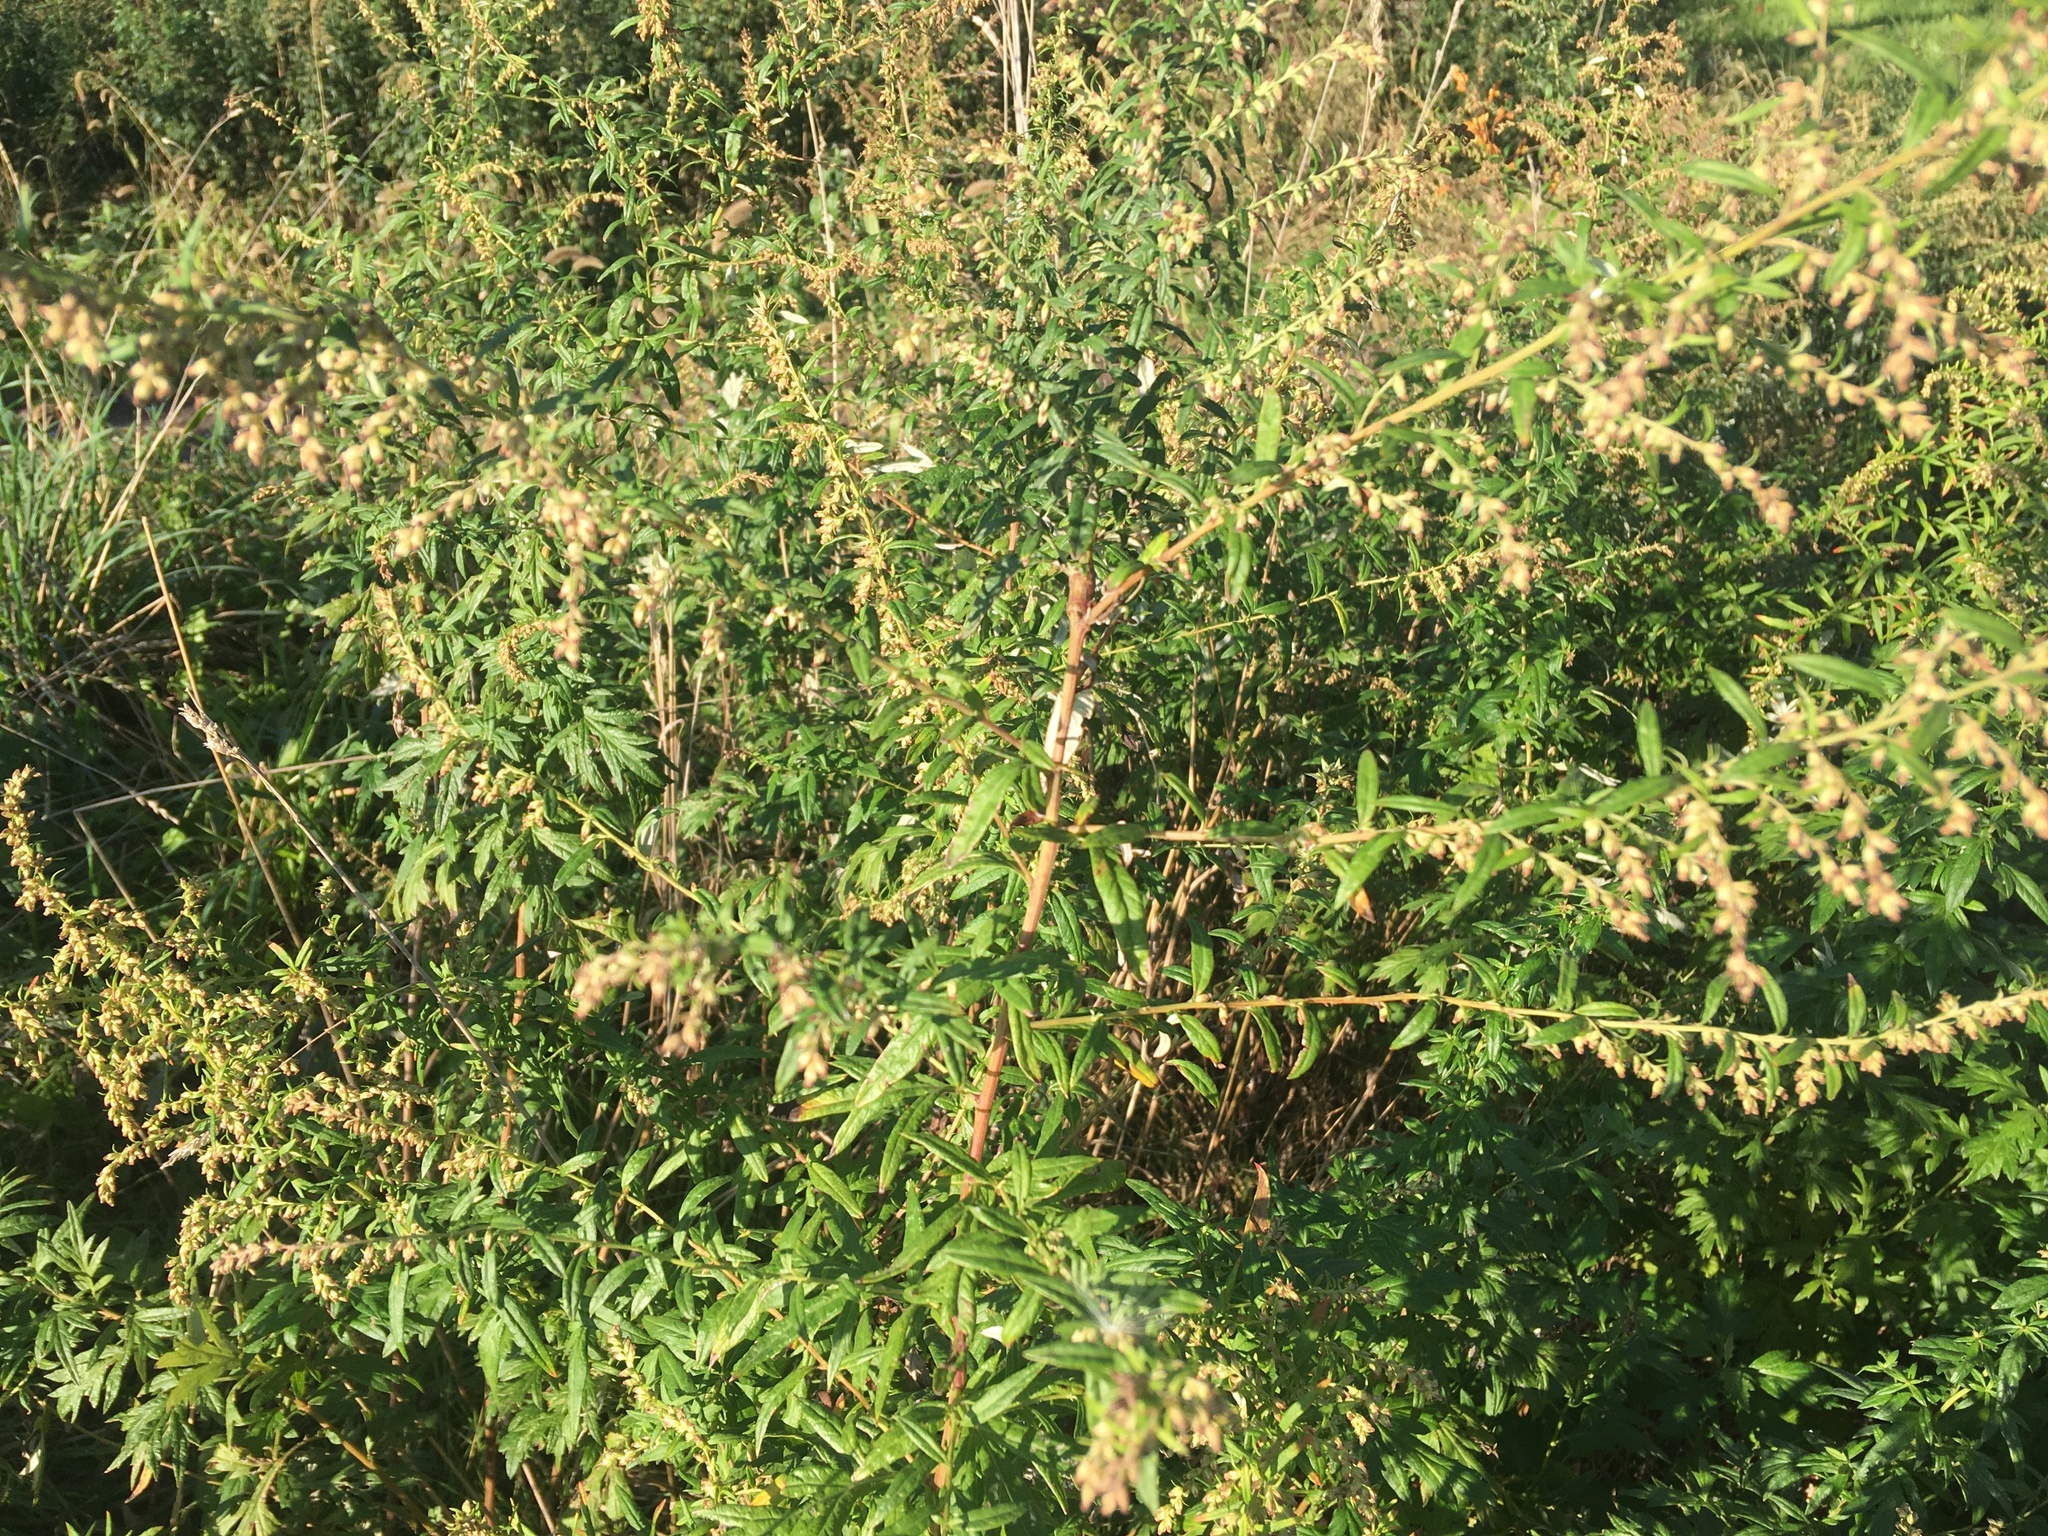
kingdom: Plantae
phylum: Tracheophyta
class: Magnoliopsida
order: Asterales
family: Asteraceae
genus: Artemisia
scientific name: Artemisia vulgaris
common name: Mugwort
